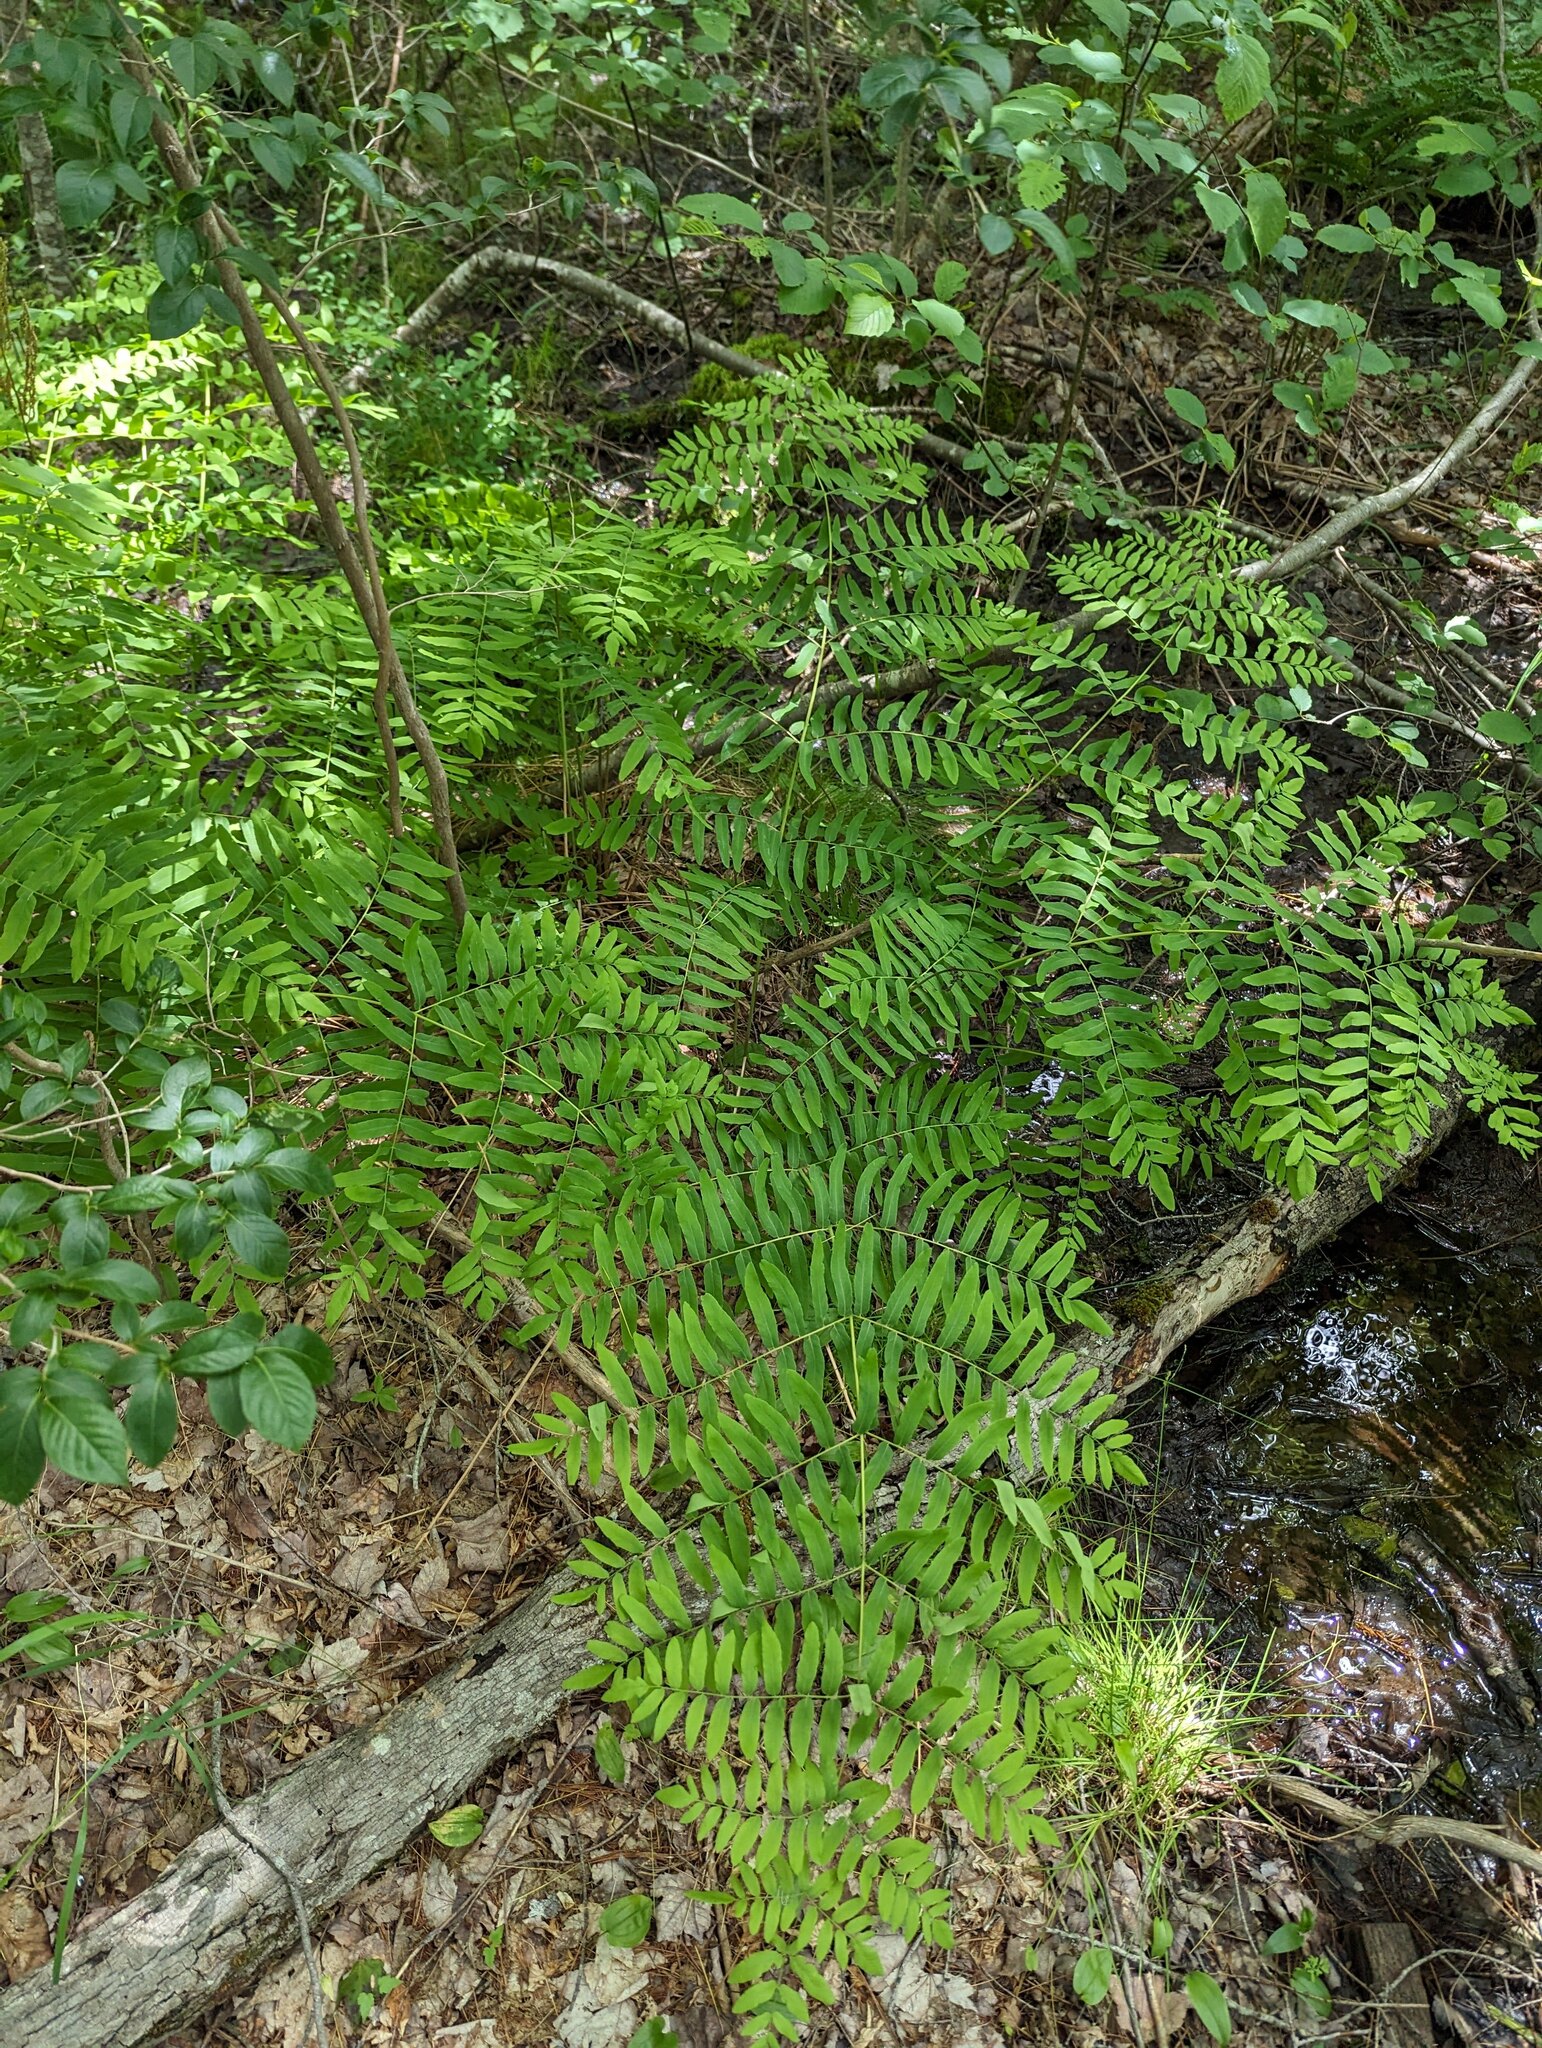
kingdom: Plantae
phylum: Tracheophyta
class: Polypodiopsida
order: Osmundales
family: Osmundaceae
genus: Osmunda
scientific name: Osmunda spectabilis
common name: American royal fern
